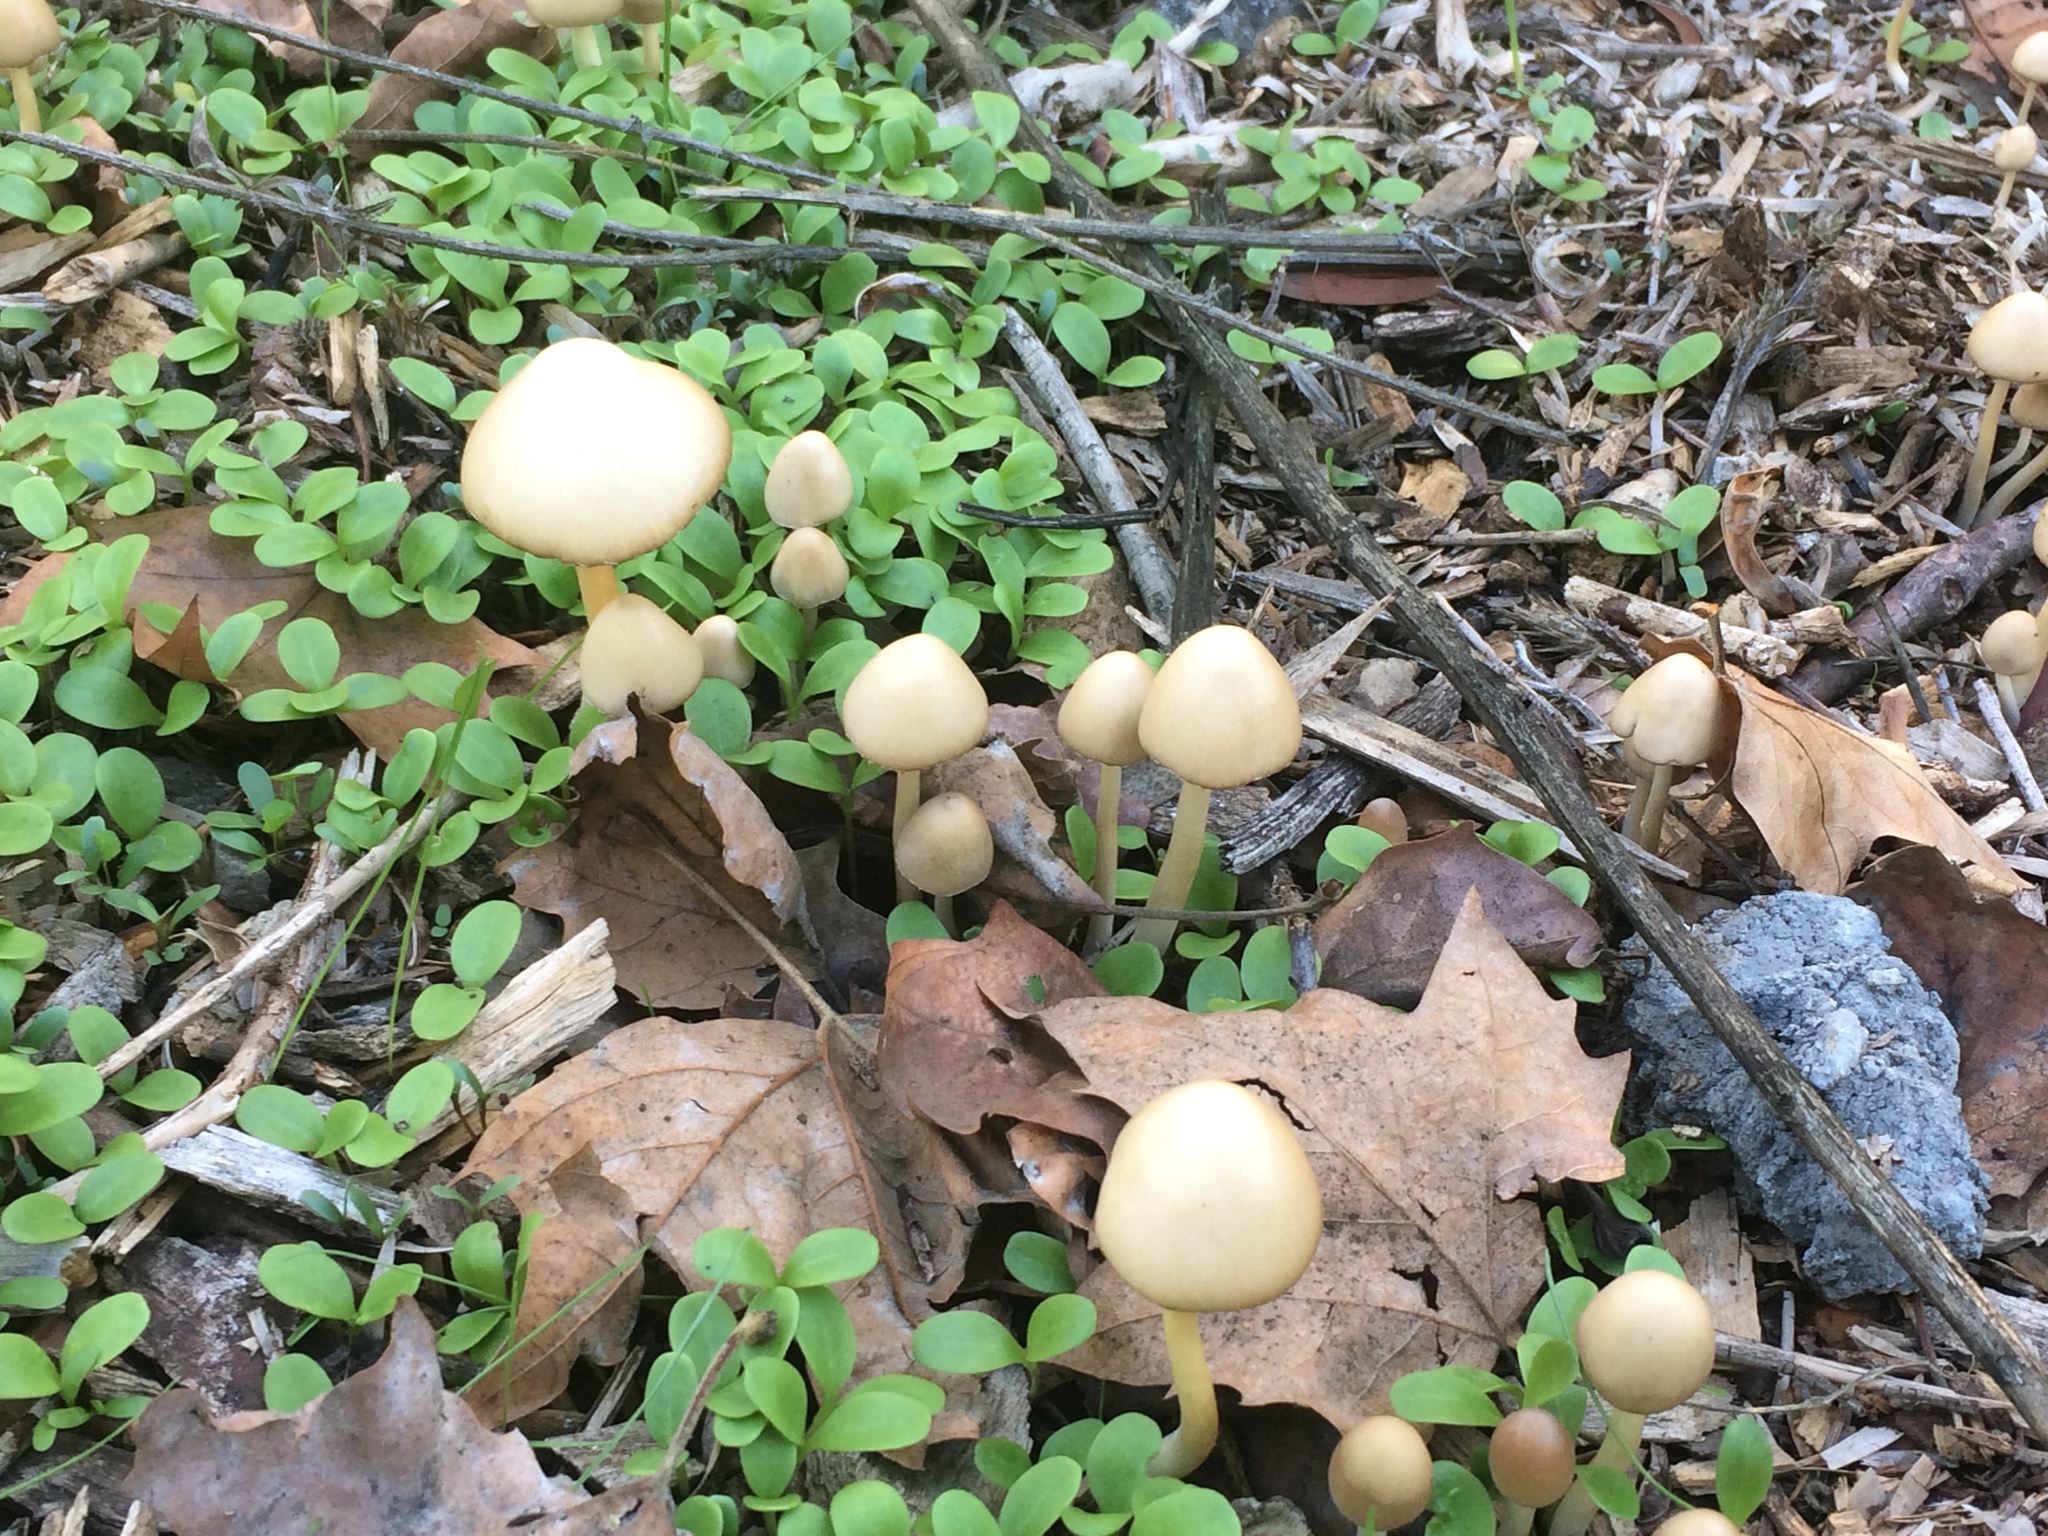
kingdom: Fungi
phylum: Basidiomycota
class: Agaricomycetes
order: Agaricales
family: Psathyrellaceae
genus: Psathyrella
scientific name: Psathyrella longipes
